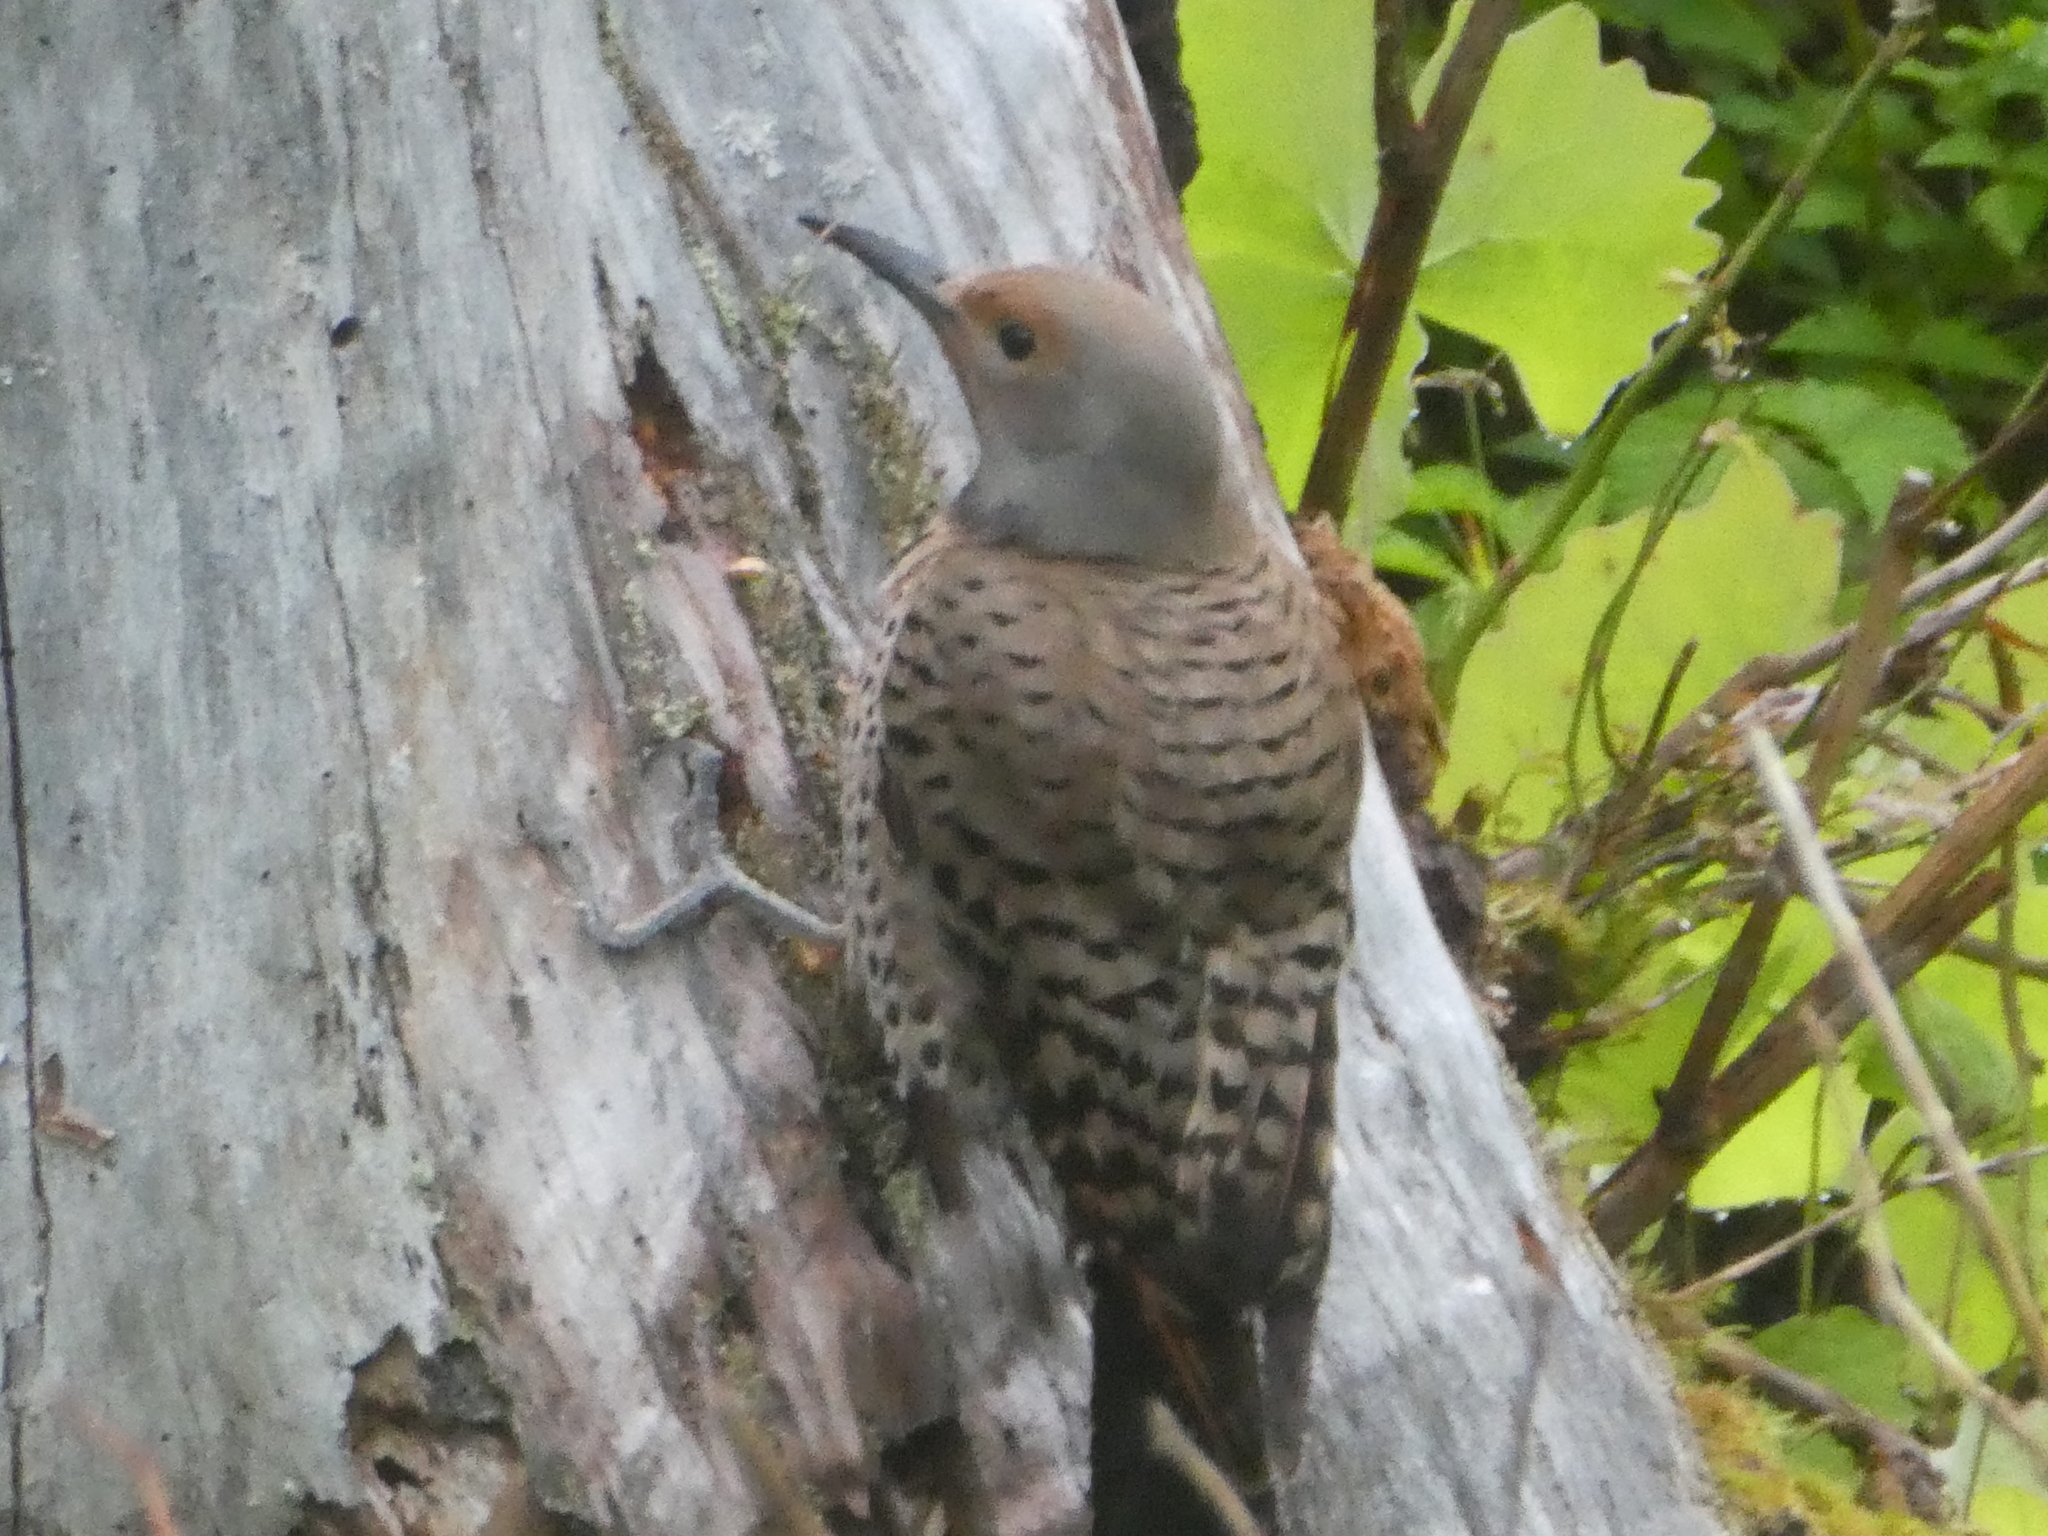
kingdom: Animalia
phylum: Chordata
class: Aves
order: Piciformes
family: Picidae
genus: Colaptes
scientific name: Colaptes auratus
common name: Northern flicker
